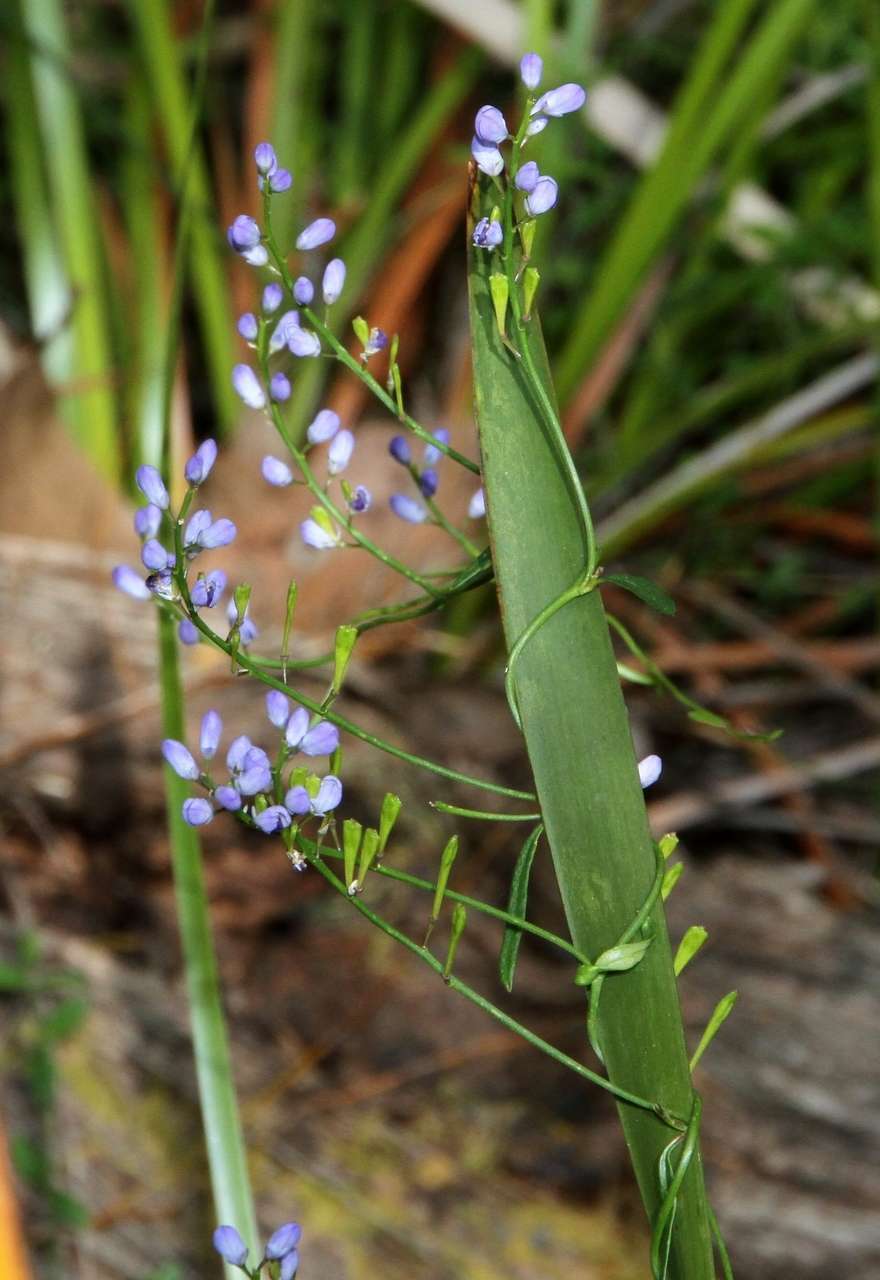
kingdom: Plantae
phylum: Tracheophyta
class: Magnoliopsida
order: Fabales
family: Polygalaceae
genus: Comesperma
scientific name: Comesperma volubile
